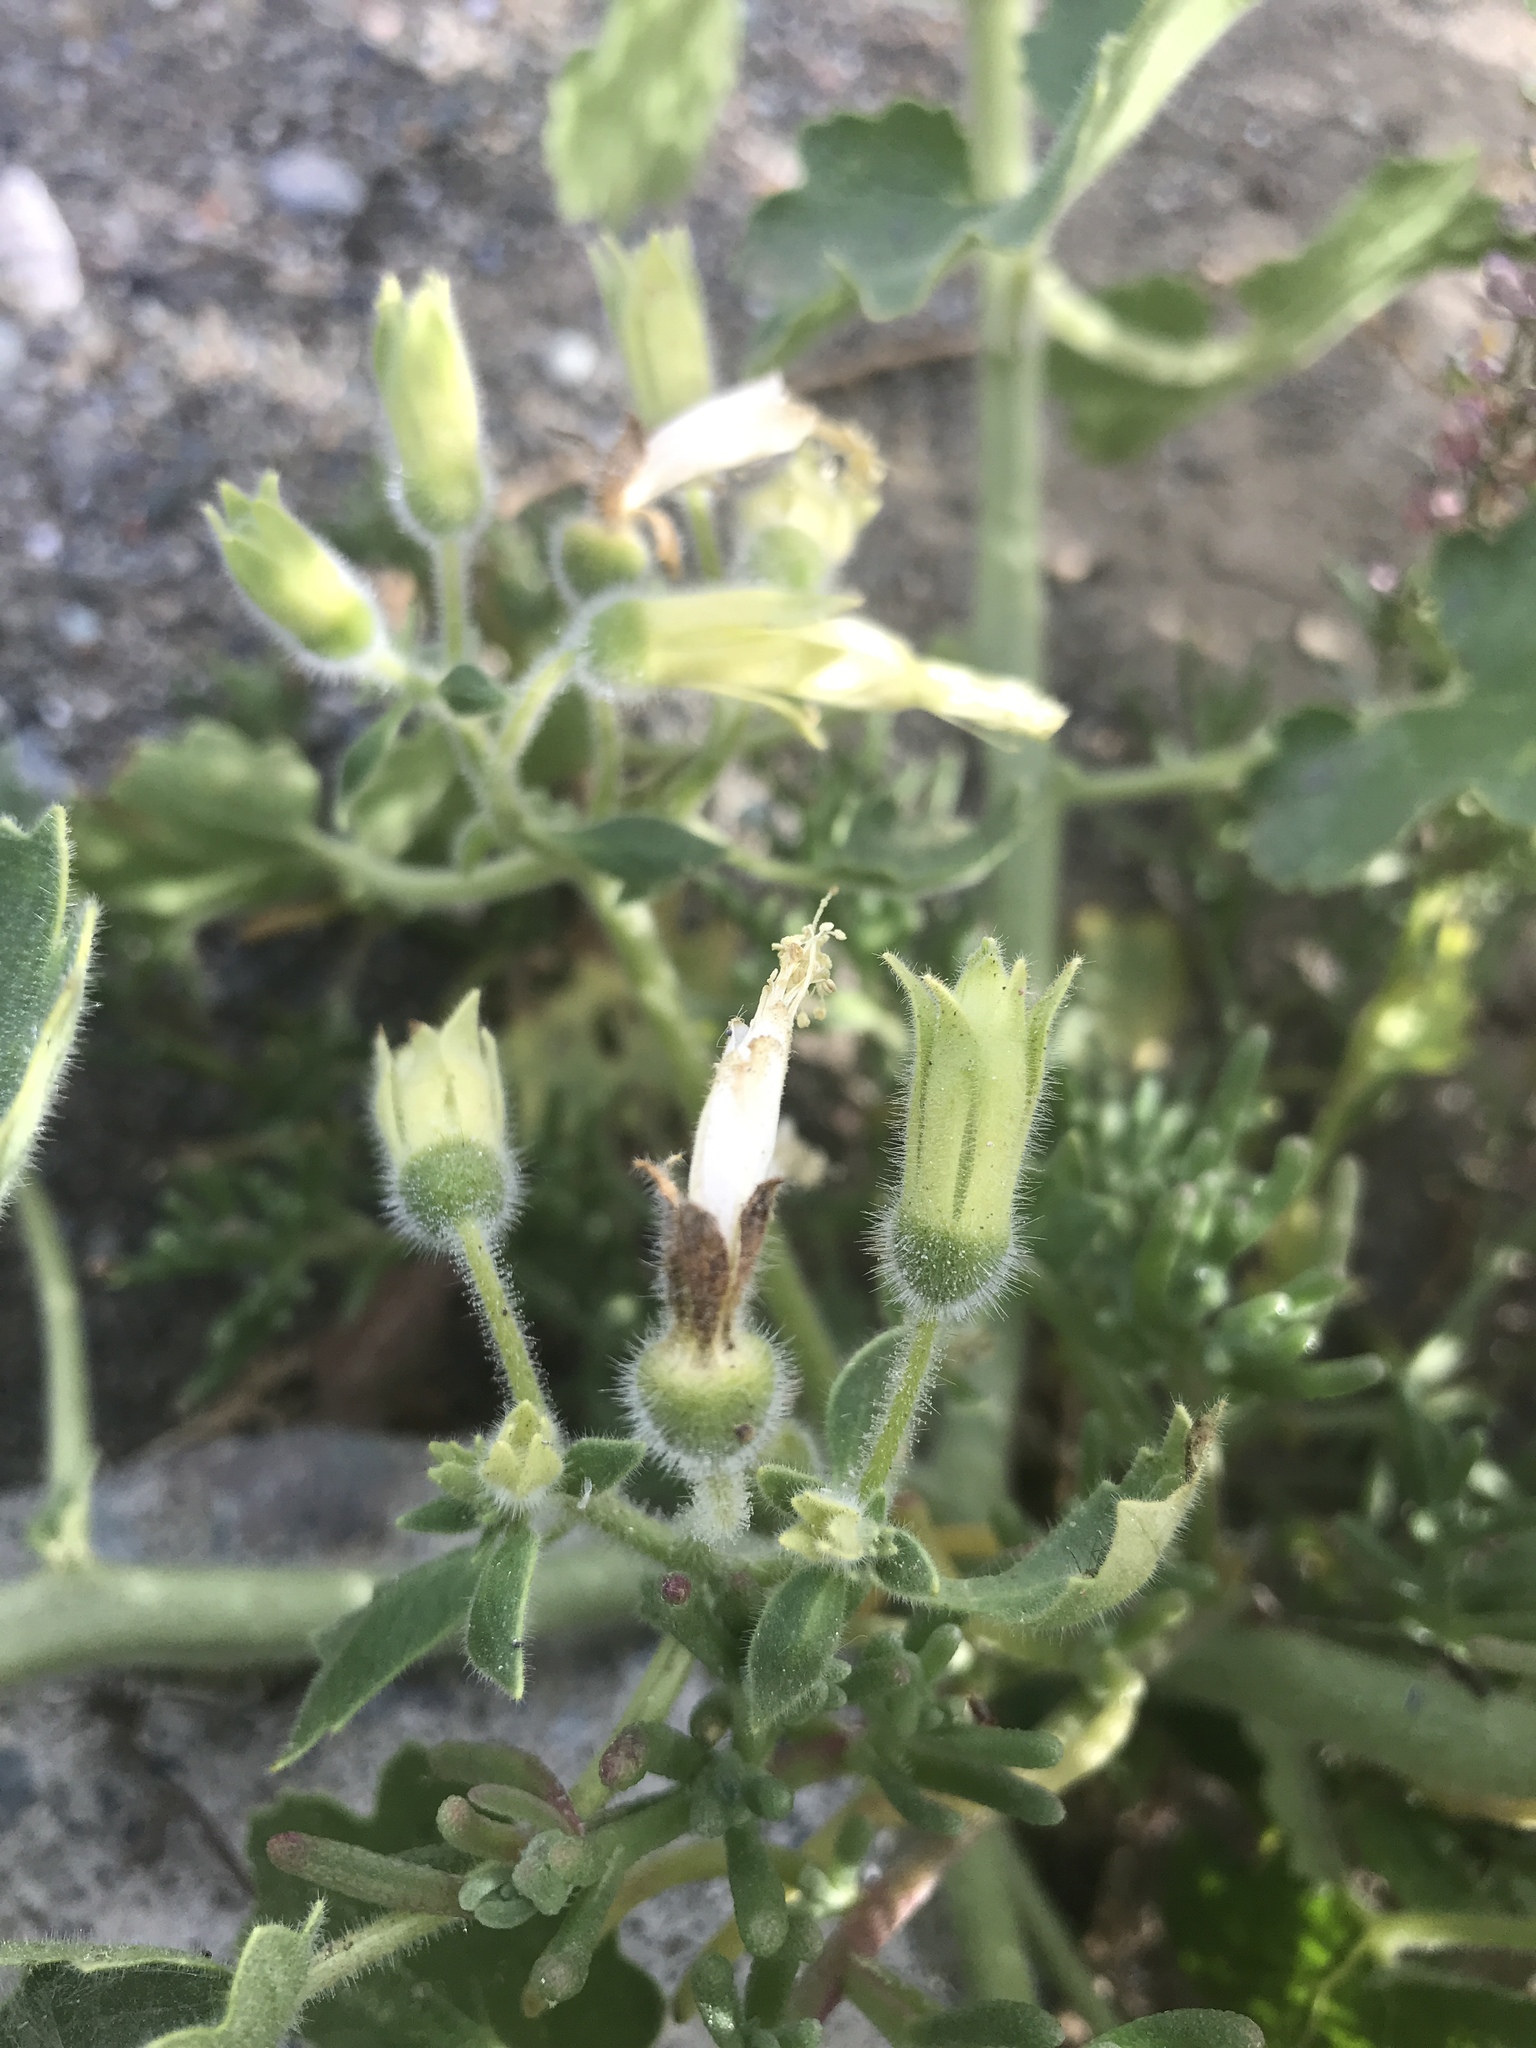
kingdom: Plantae
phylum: Tracheophyta
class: Magnoliopsida
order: Cornales
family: Loasaceae
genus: Eucnide
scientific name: Eucnide cordata
